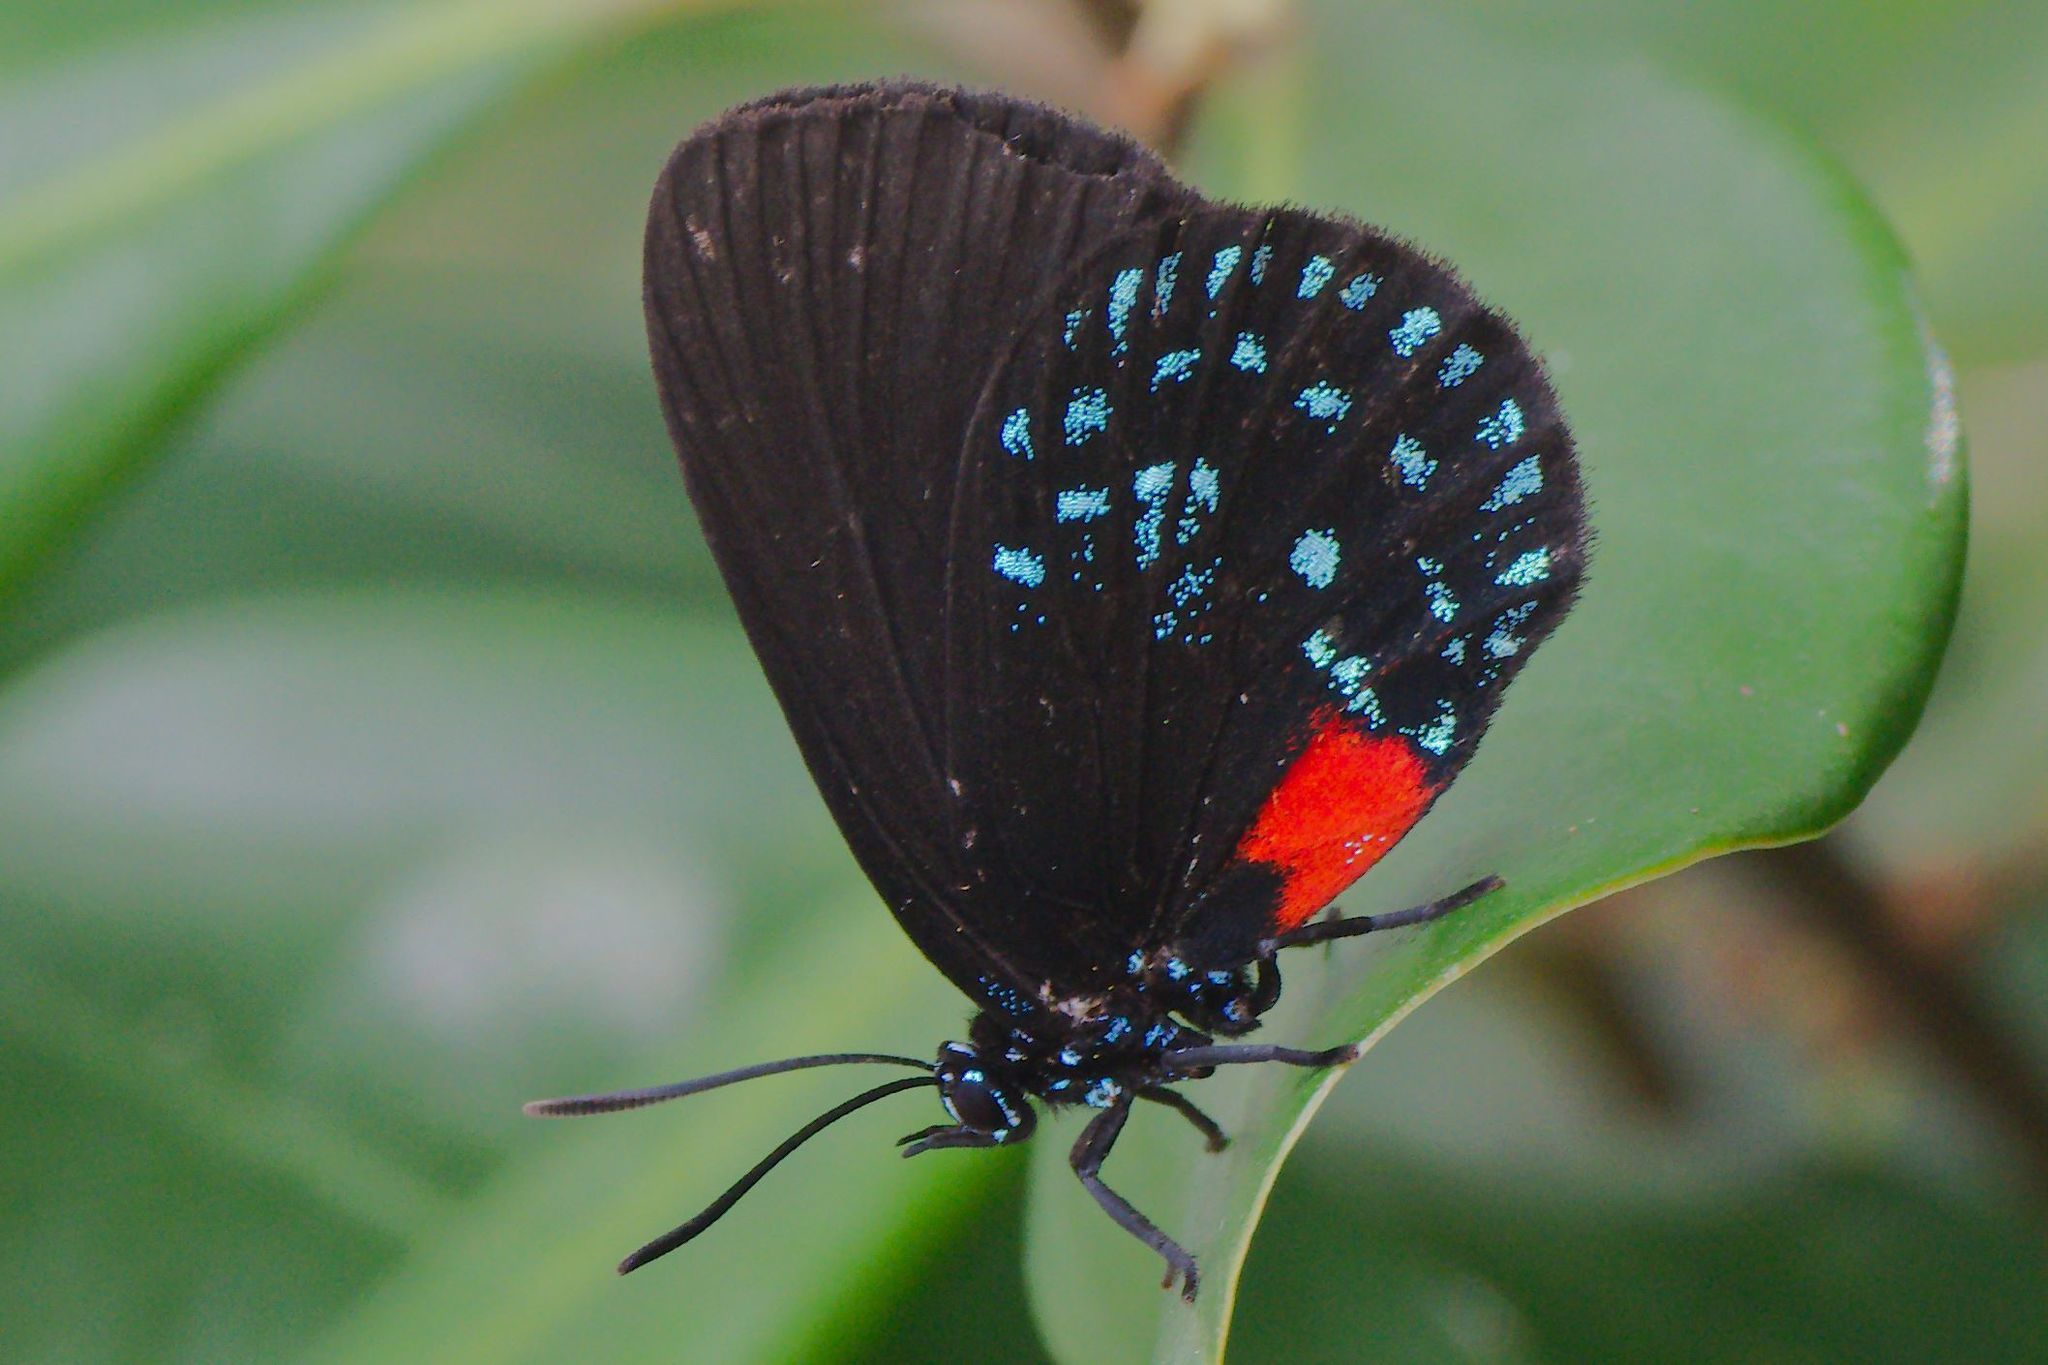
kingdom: Animalia
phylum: Arthropoda
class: Insecta
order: Lepidoptera
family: Lycaenidae
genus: Eumaeus
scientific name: Eumaeus atala
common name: Atala
